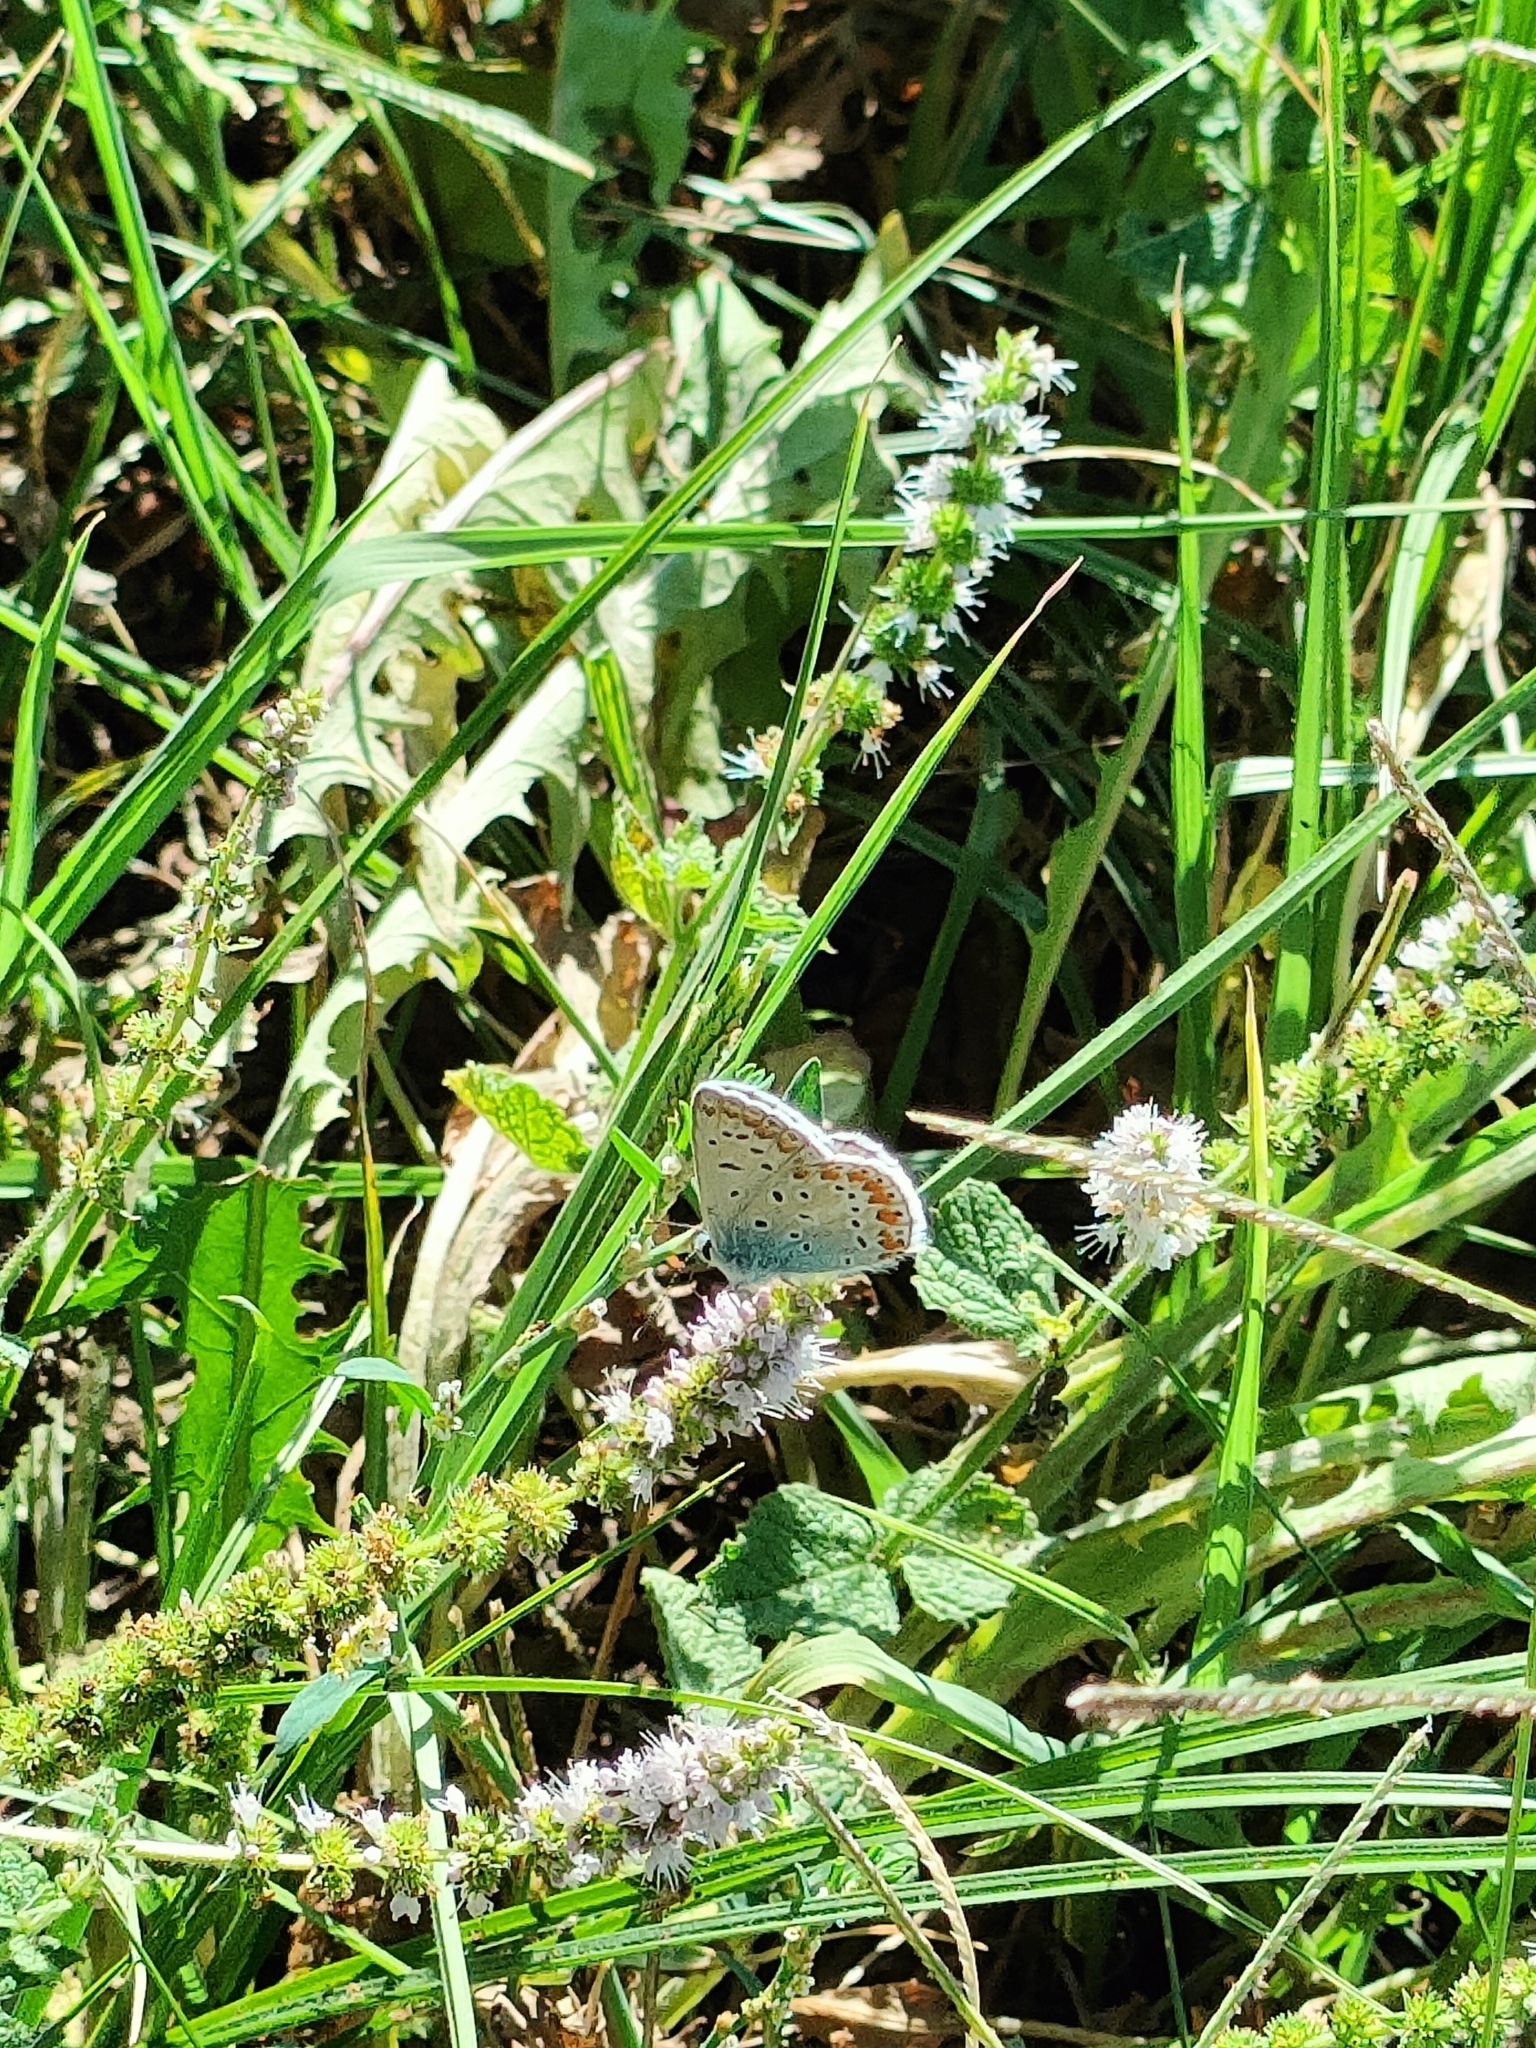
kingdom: Animalia
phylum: Arthropoda
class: Insecta
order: Lepidoptera
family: Lycaenidae
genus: Polyommatus
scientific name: Polyommatus icarus
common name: Common blue
